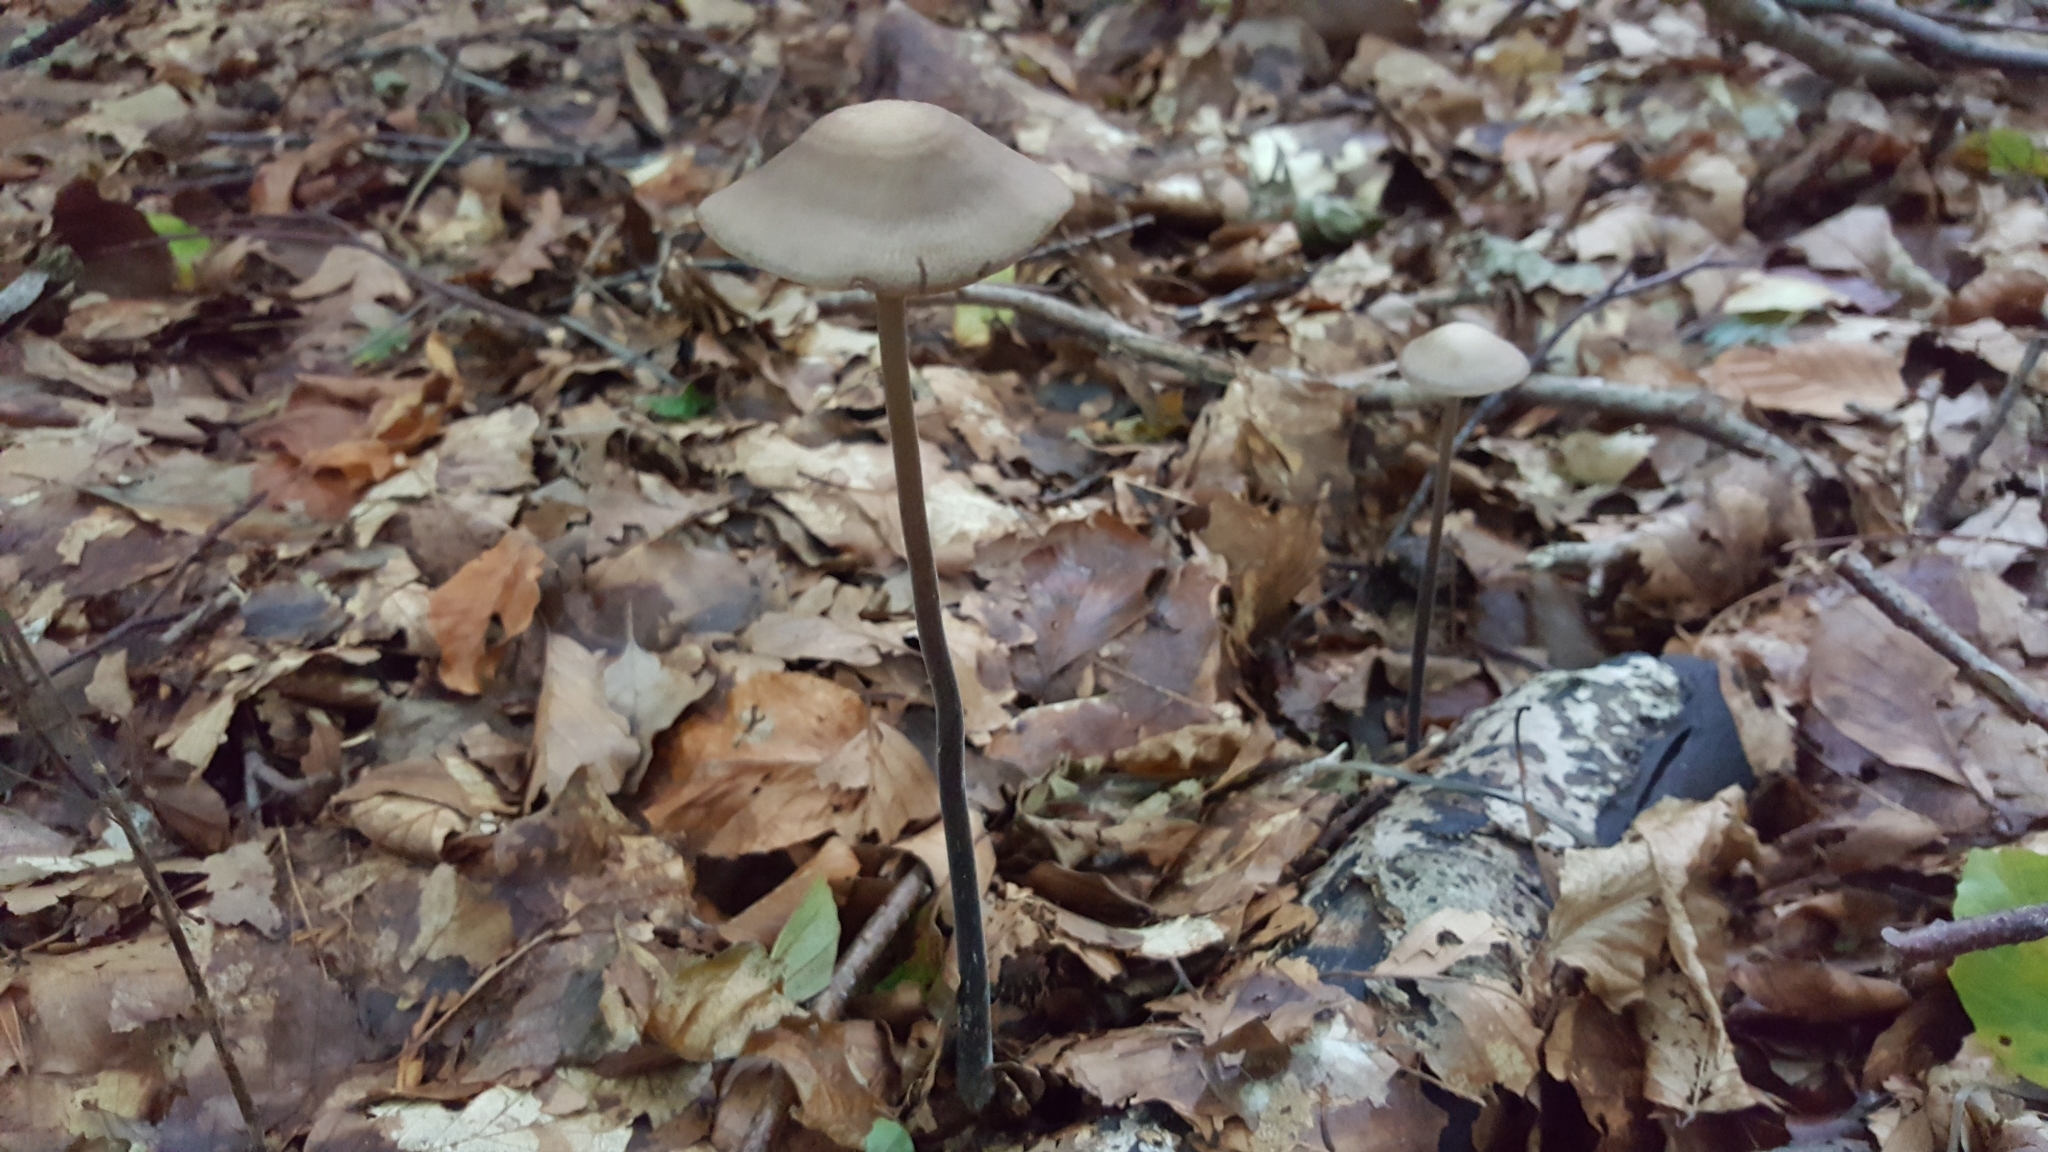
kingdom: Fungi
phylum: Basidiomycota
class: Agaricomycetes
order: Agaricales
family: Omphalotaceae
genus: Mycetinis
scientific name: Mycetinis alliaceus
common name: Garlic parachute
